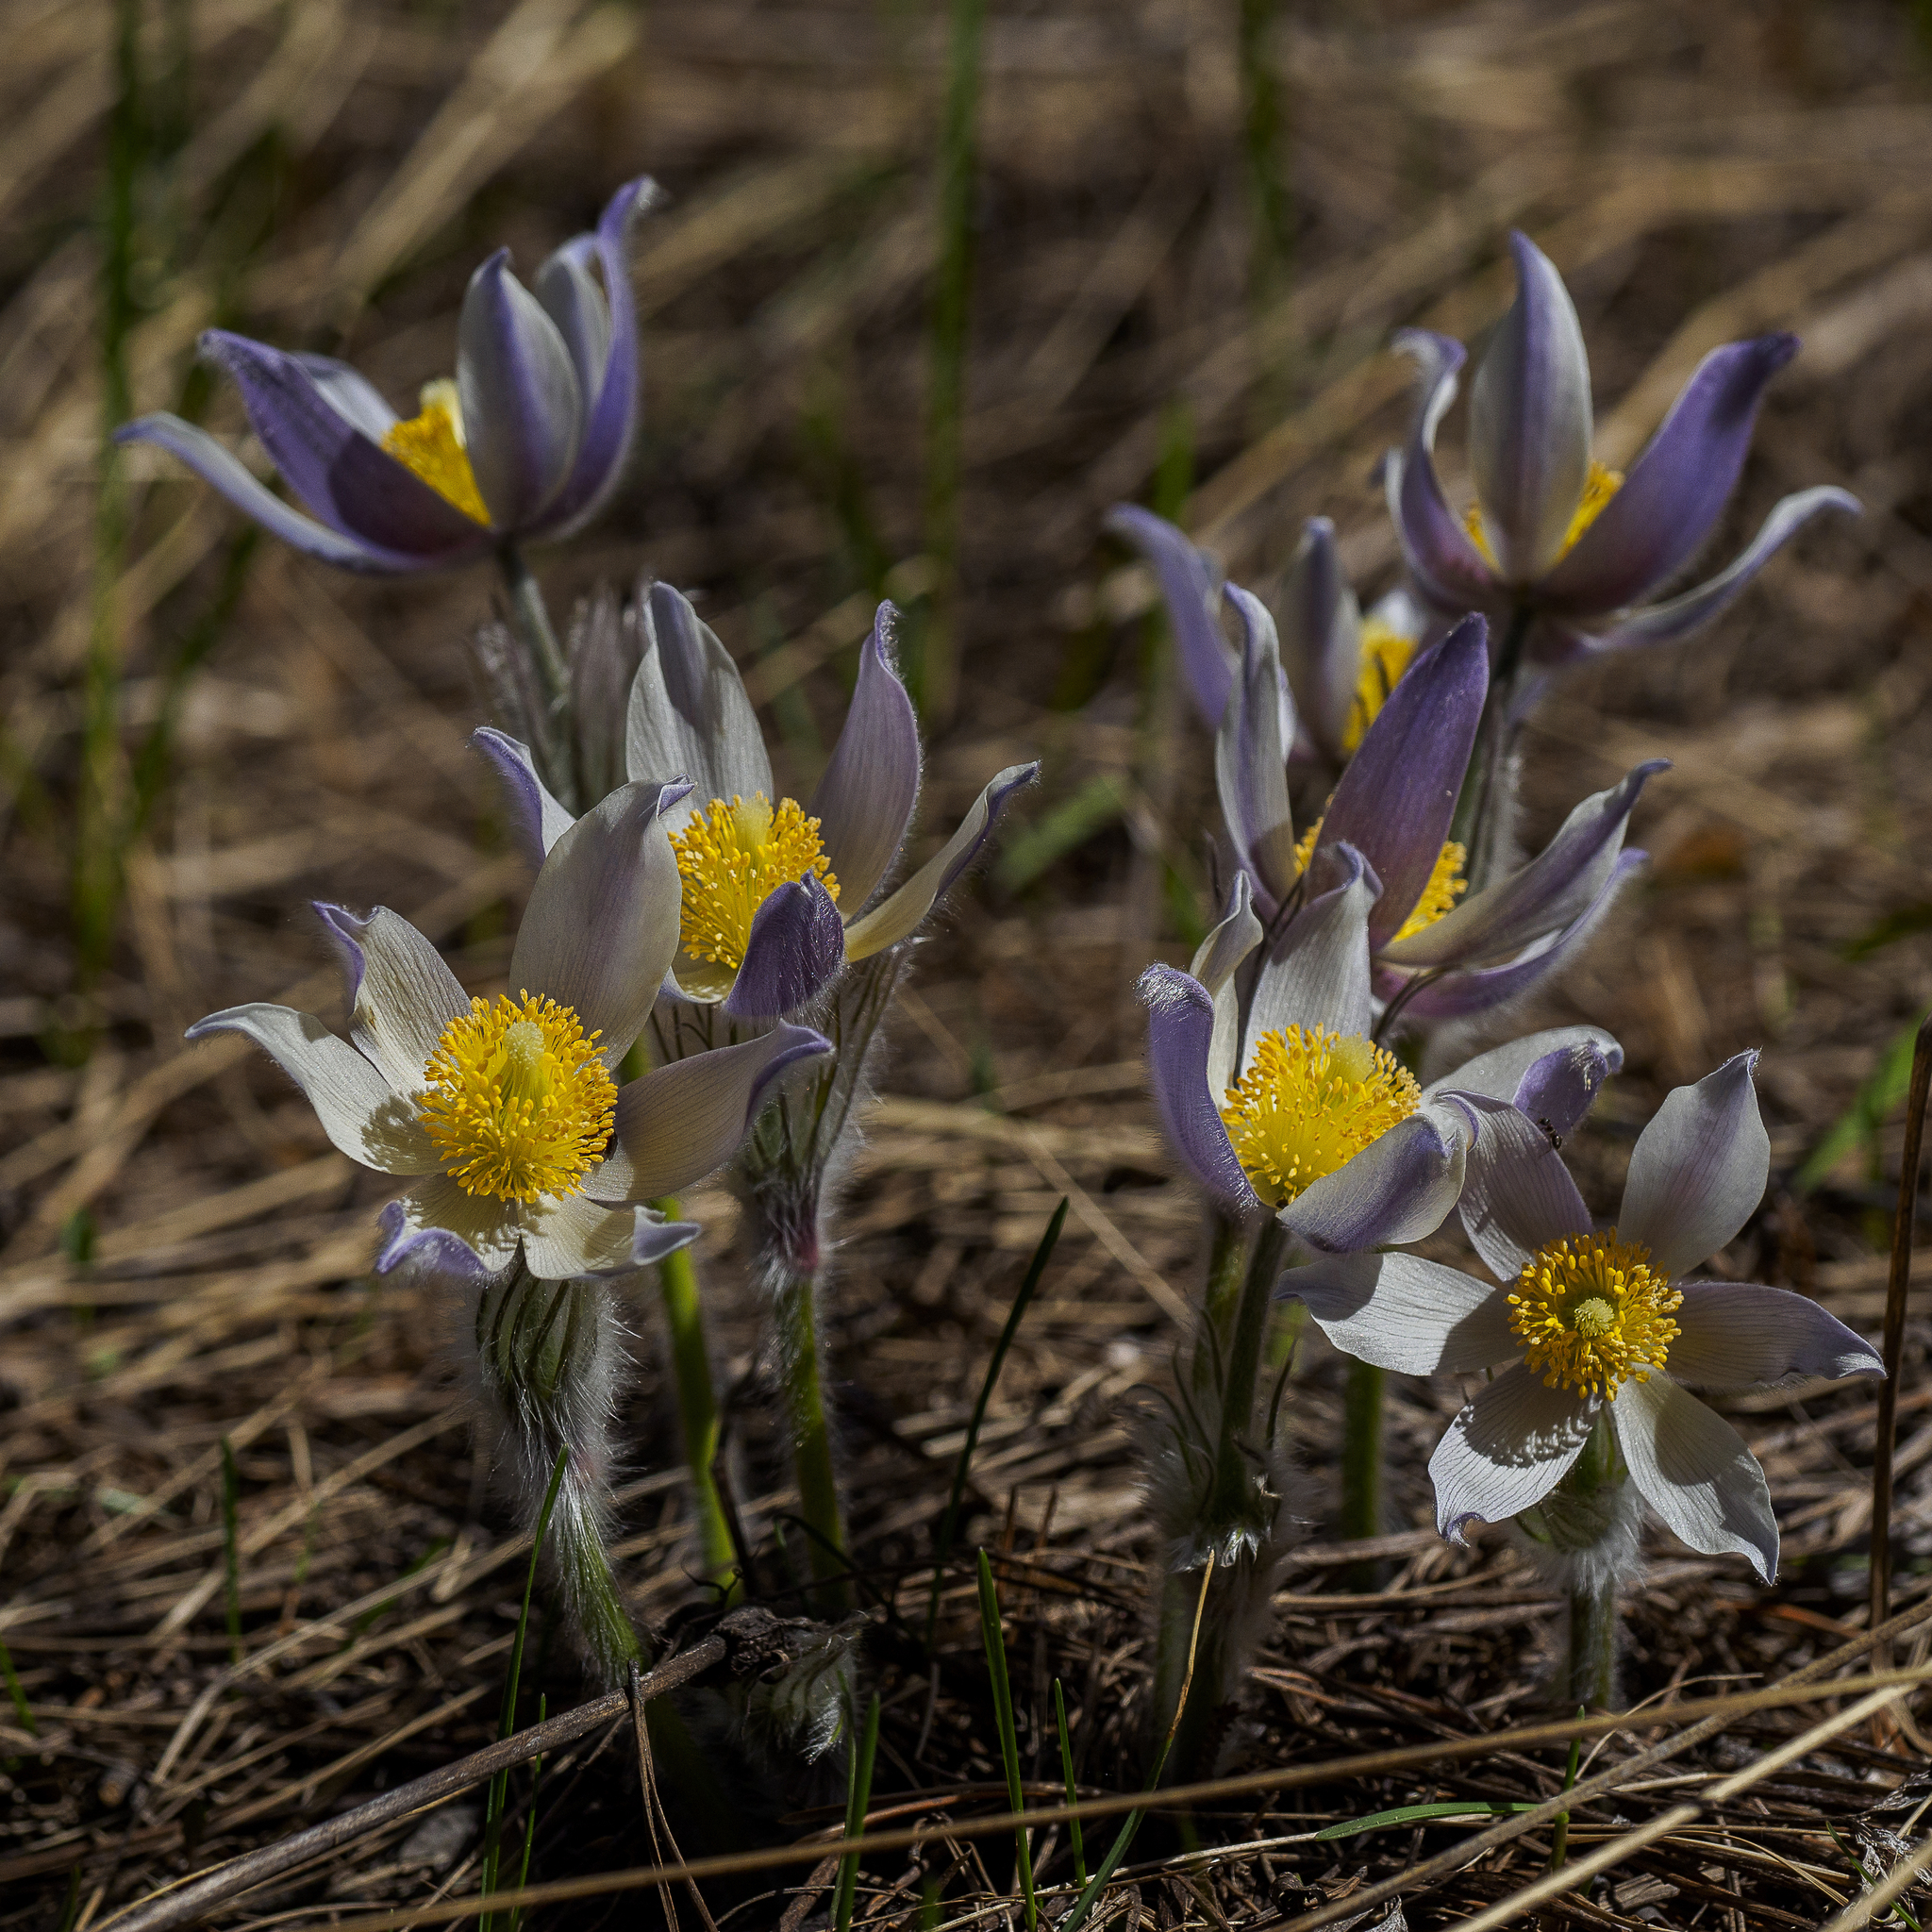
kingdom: Plantae
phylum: Tracheophyta
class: Magnoliopsida
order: Ranunculales
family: Ranunculaceae
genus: Pulsatilla
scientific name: Pulsatilla patens
